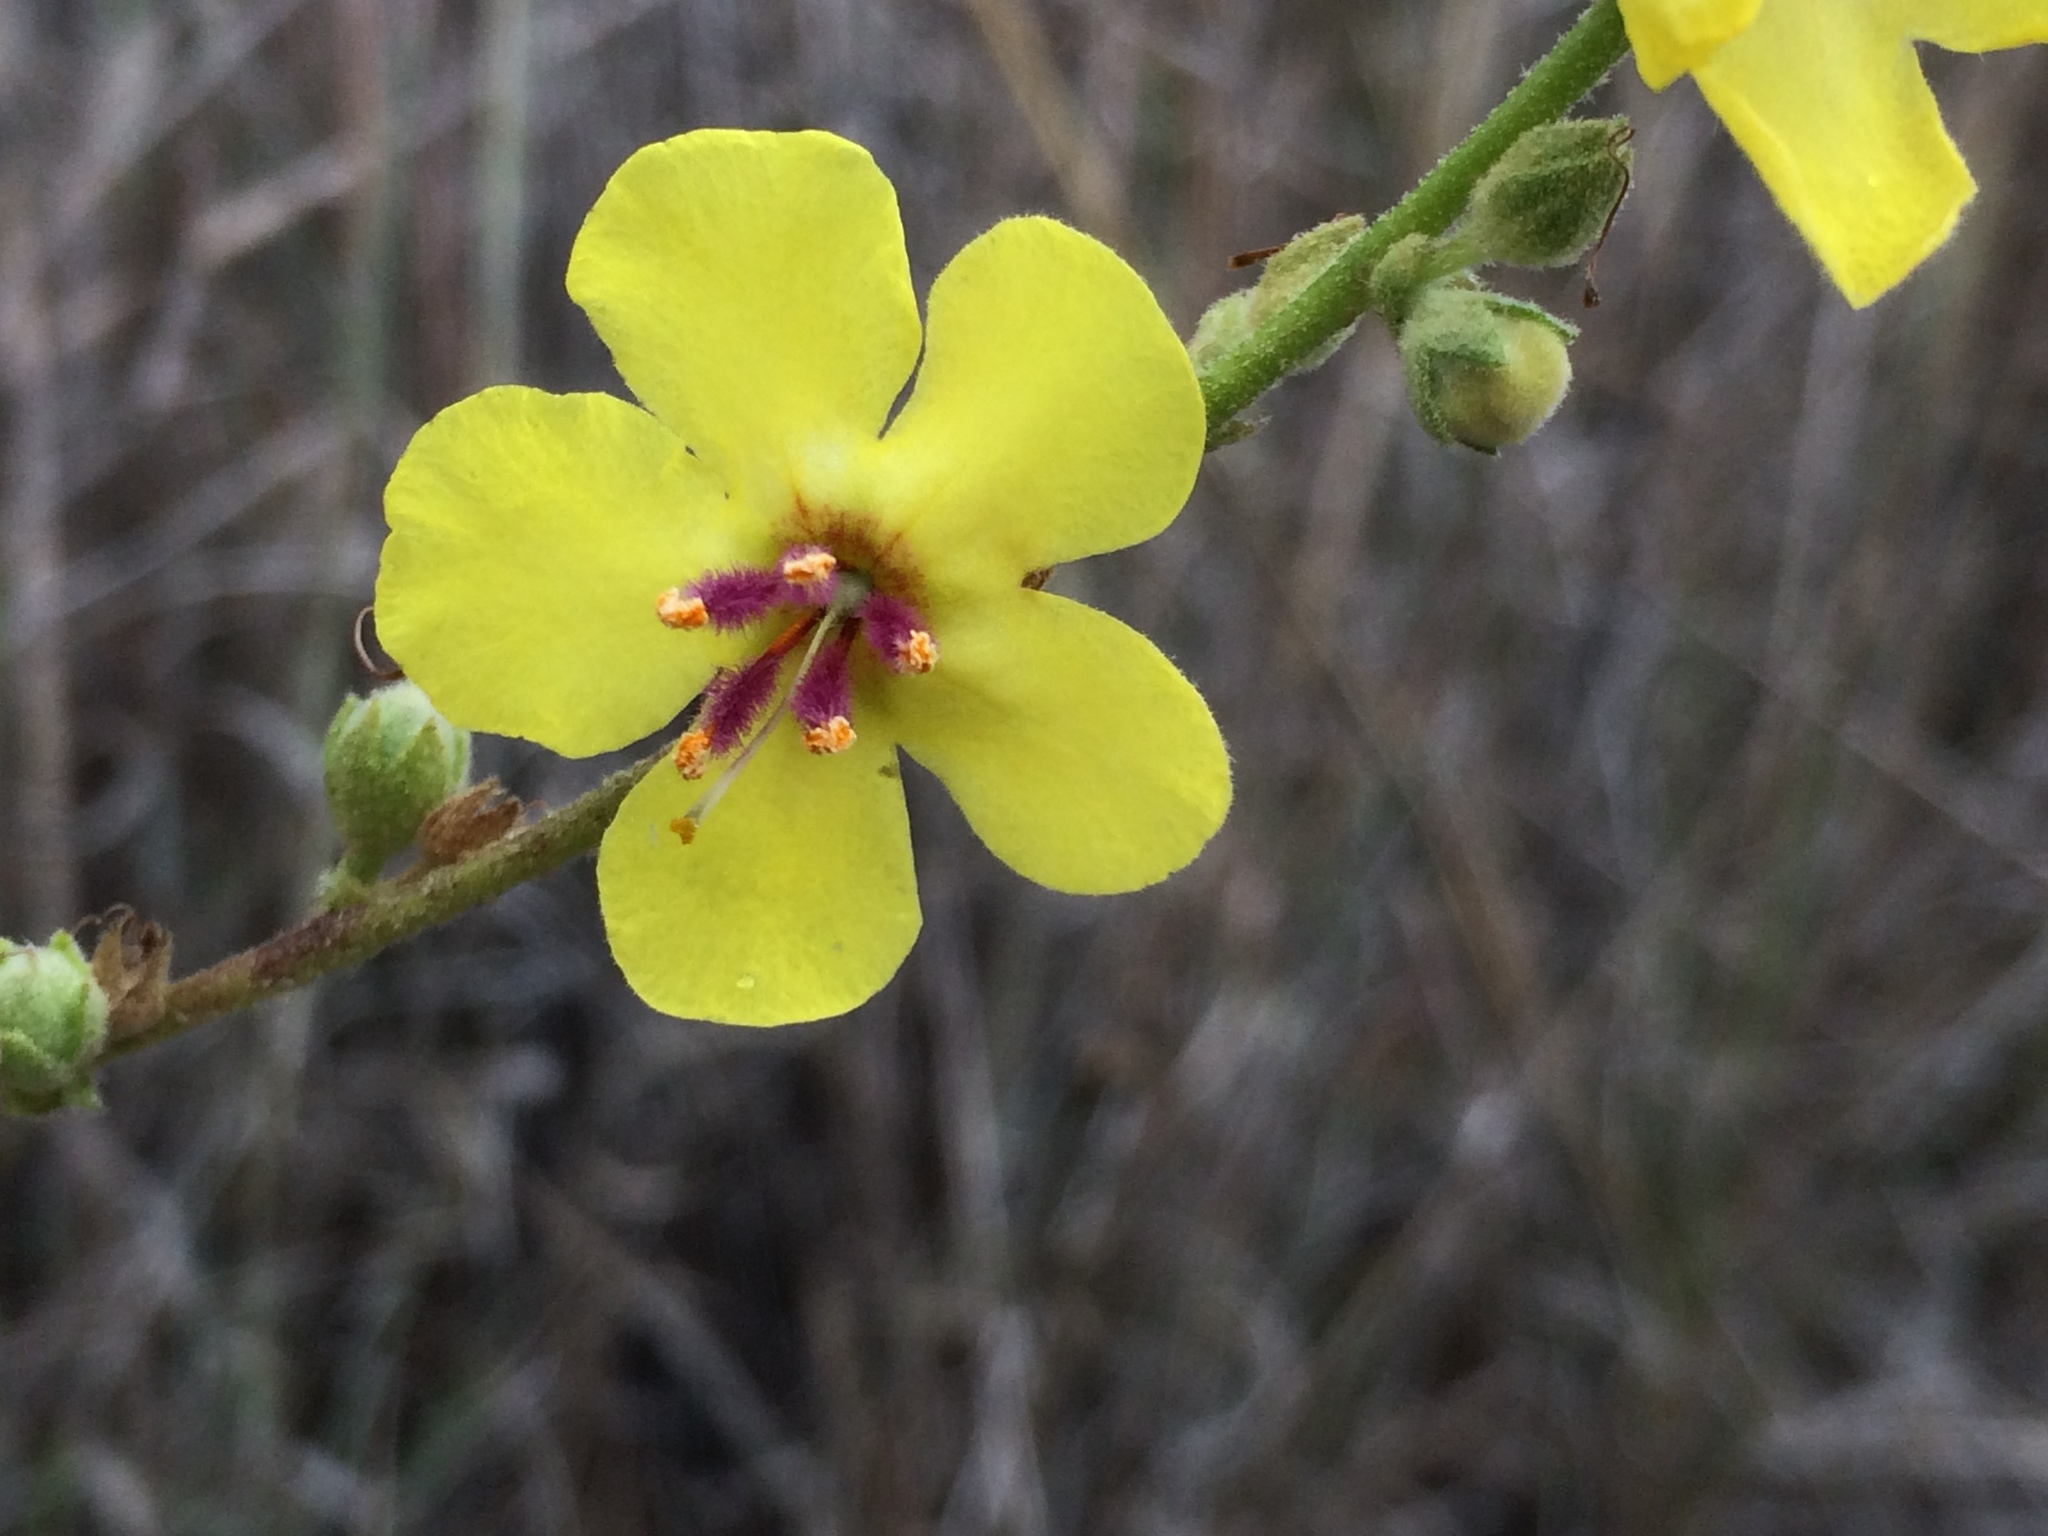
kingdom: Plantae
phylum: Tracheophyta
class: Magnoliopsida
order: Lamiales
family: Scrophulariaceae
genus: Verbascum
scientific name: Verbascum sinuatum
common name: Wavyleaf mullein
